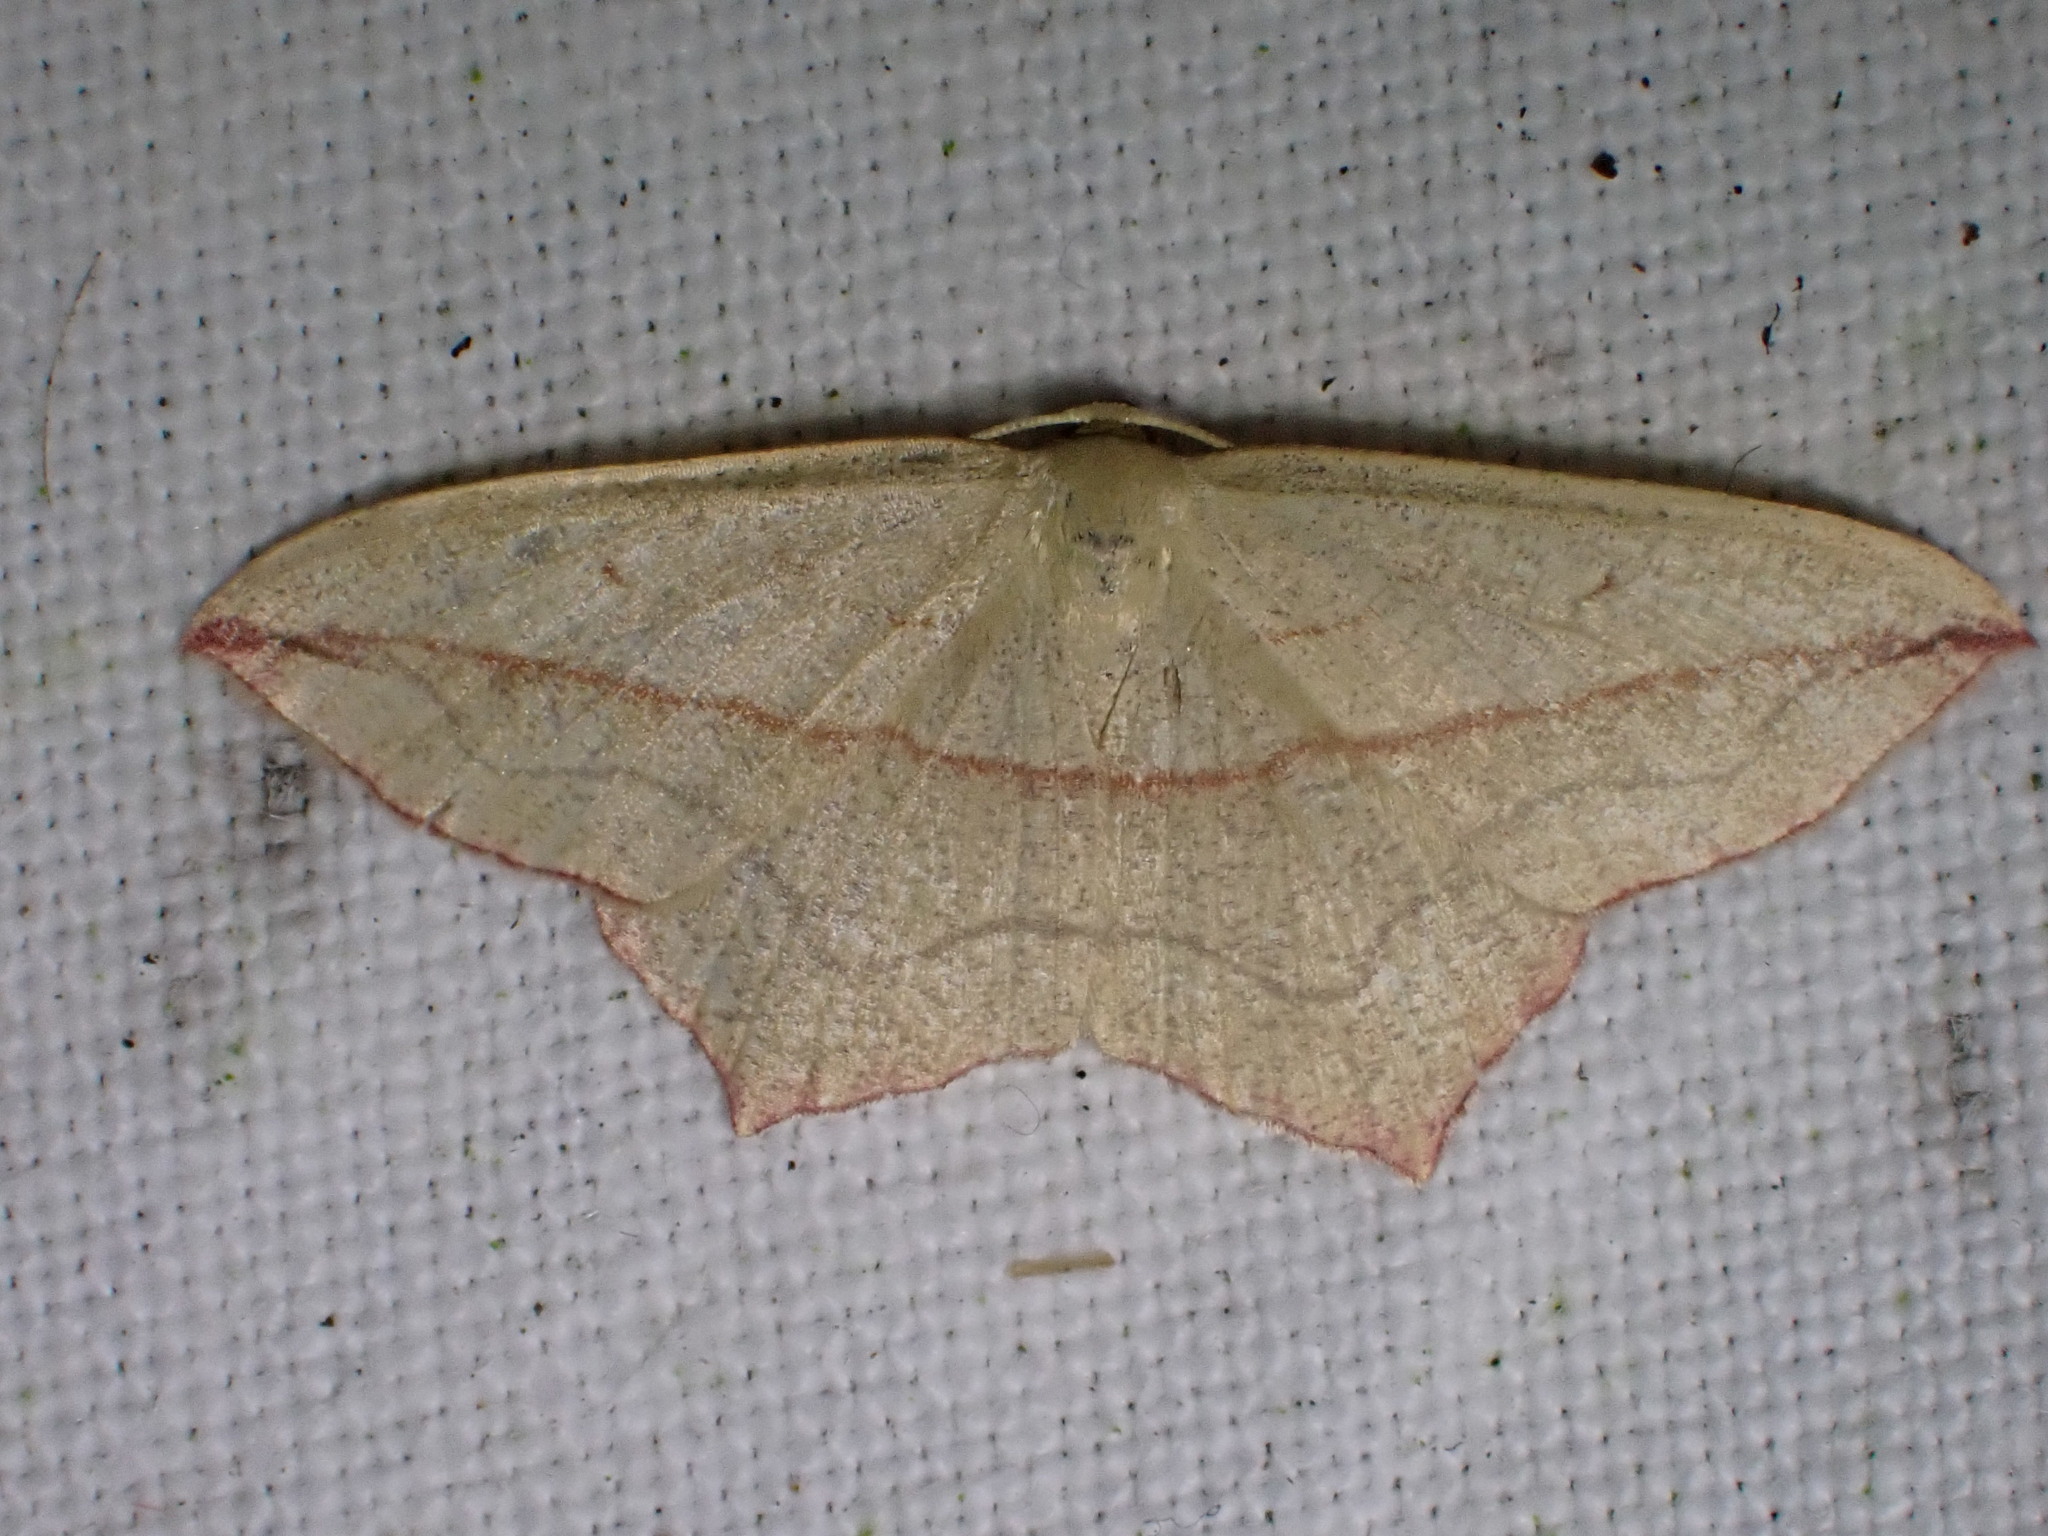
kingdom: Animalia
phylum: Arthropoda
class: Insecta
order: Lepidoptera
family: Geometridae
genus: Timandra
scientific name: Timandra comae
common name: Blood-vein
